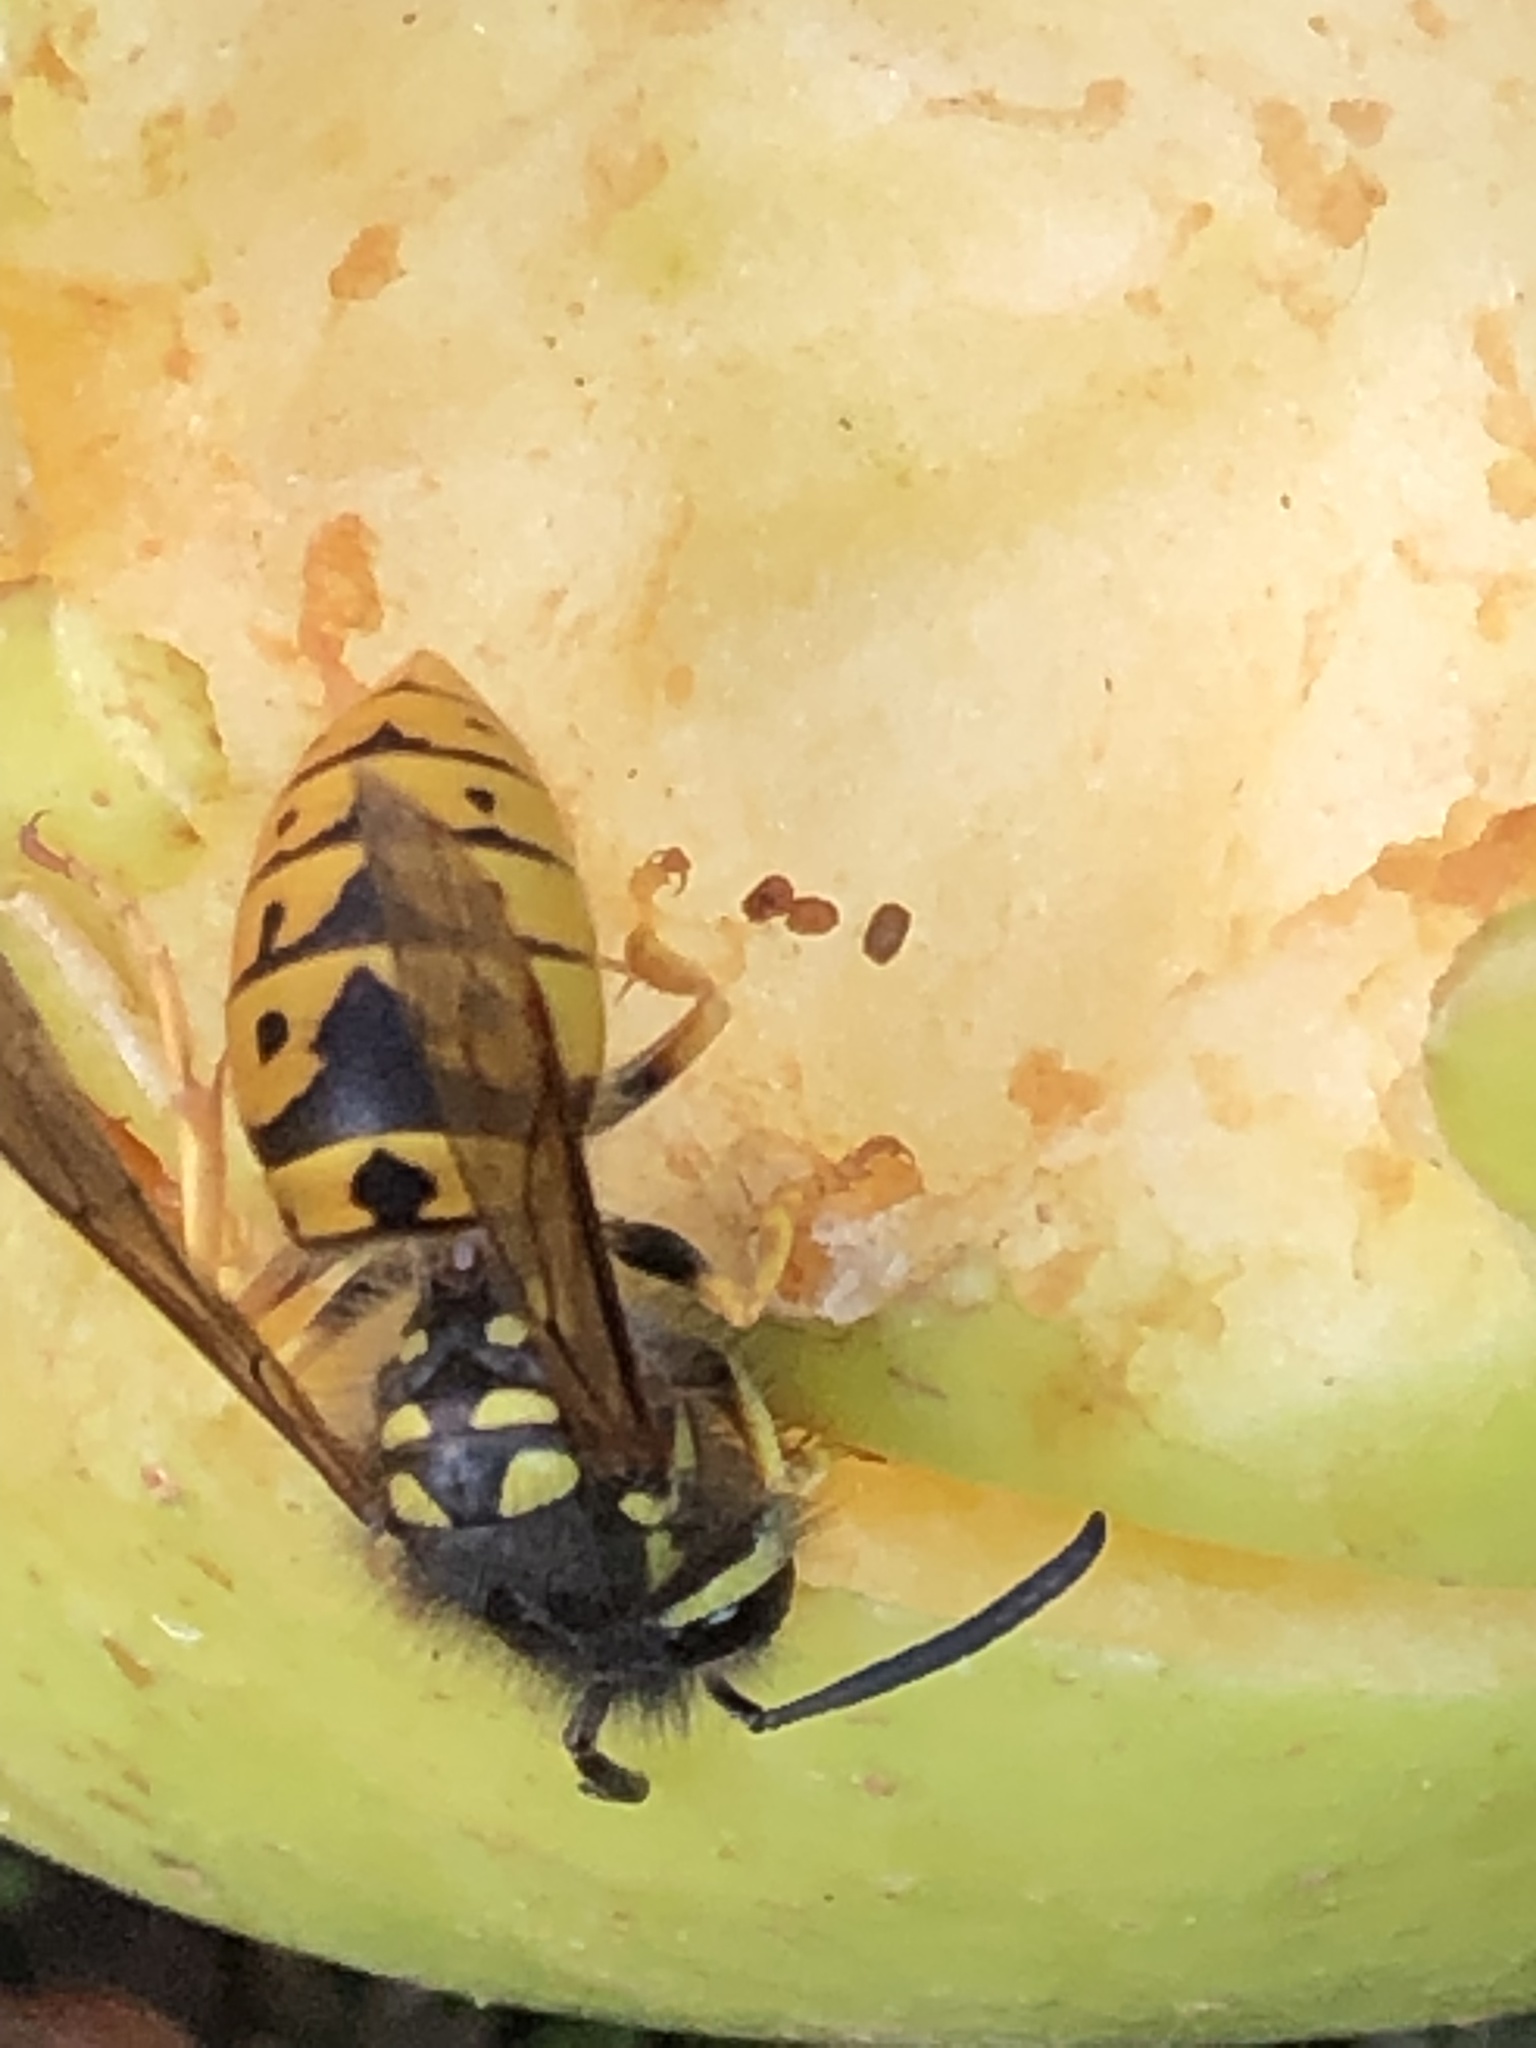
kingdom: Animalia
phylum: Arthropoda
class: Insecta
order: Hymenoptera
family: Vespidae
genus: Vespula
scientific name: Vespula germanica
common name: German wasp
